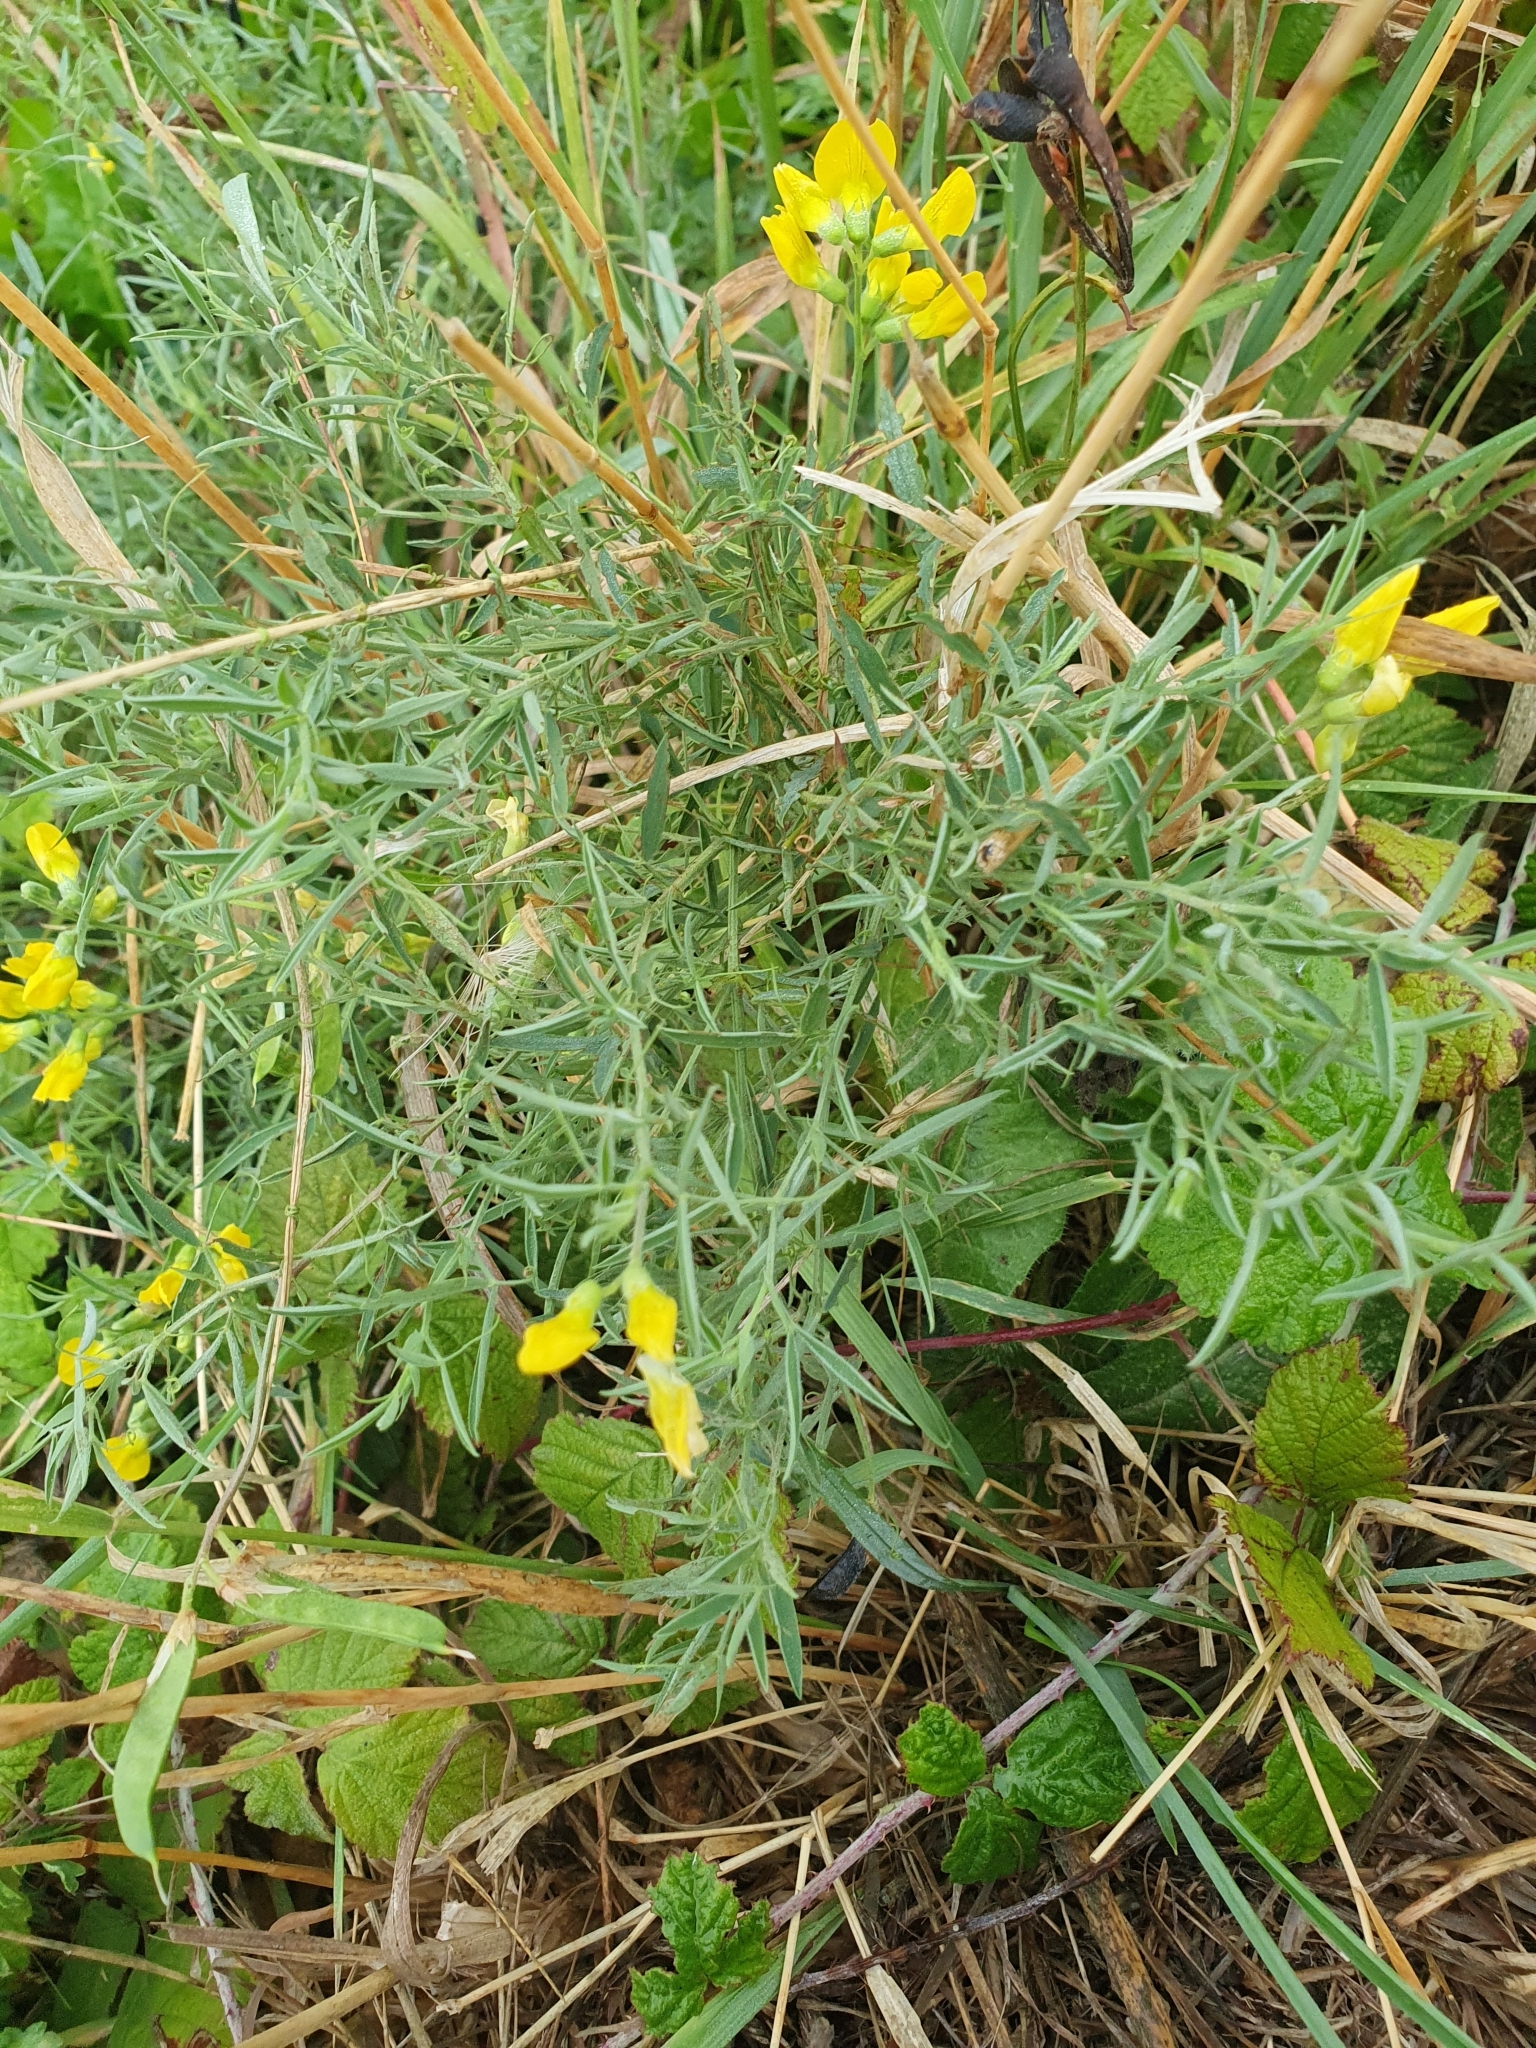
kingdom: Plantae
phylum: Tracheophyta
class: Magnoliopsida
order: Fabales
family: Fabaceae
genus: Lathyrus
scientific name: Lathyrus pratensis
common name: Meadow vetchling
